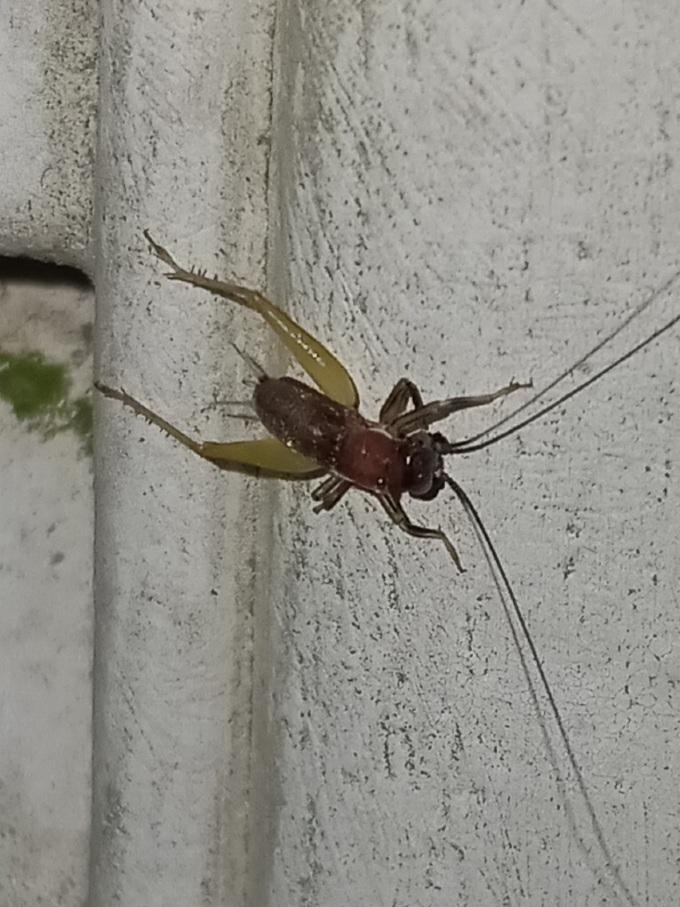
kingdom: Animalia
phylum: Arthropoda
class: Insecta
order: Orthoptera
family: Trigonidiidae
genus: Phyllopalpus
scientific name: Phyllopalpus pulchellus
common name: Handsome trig
